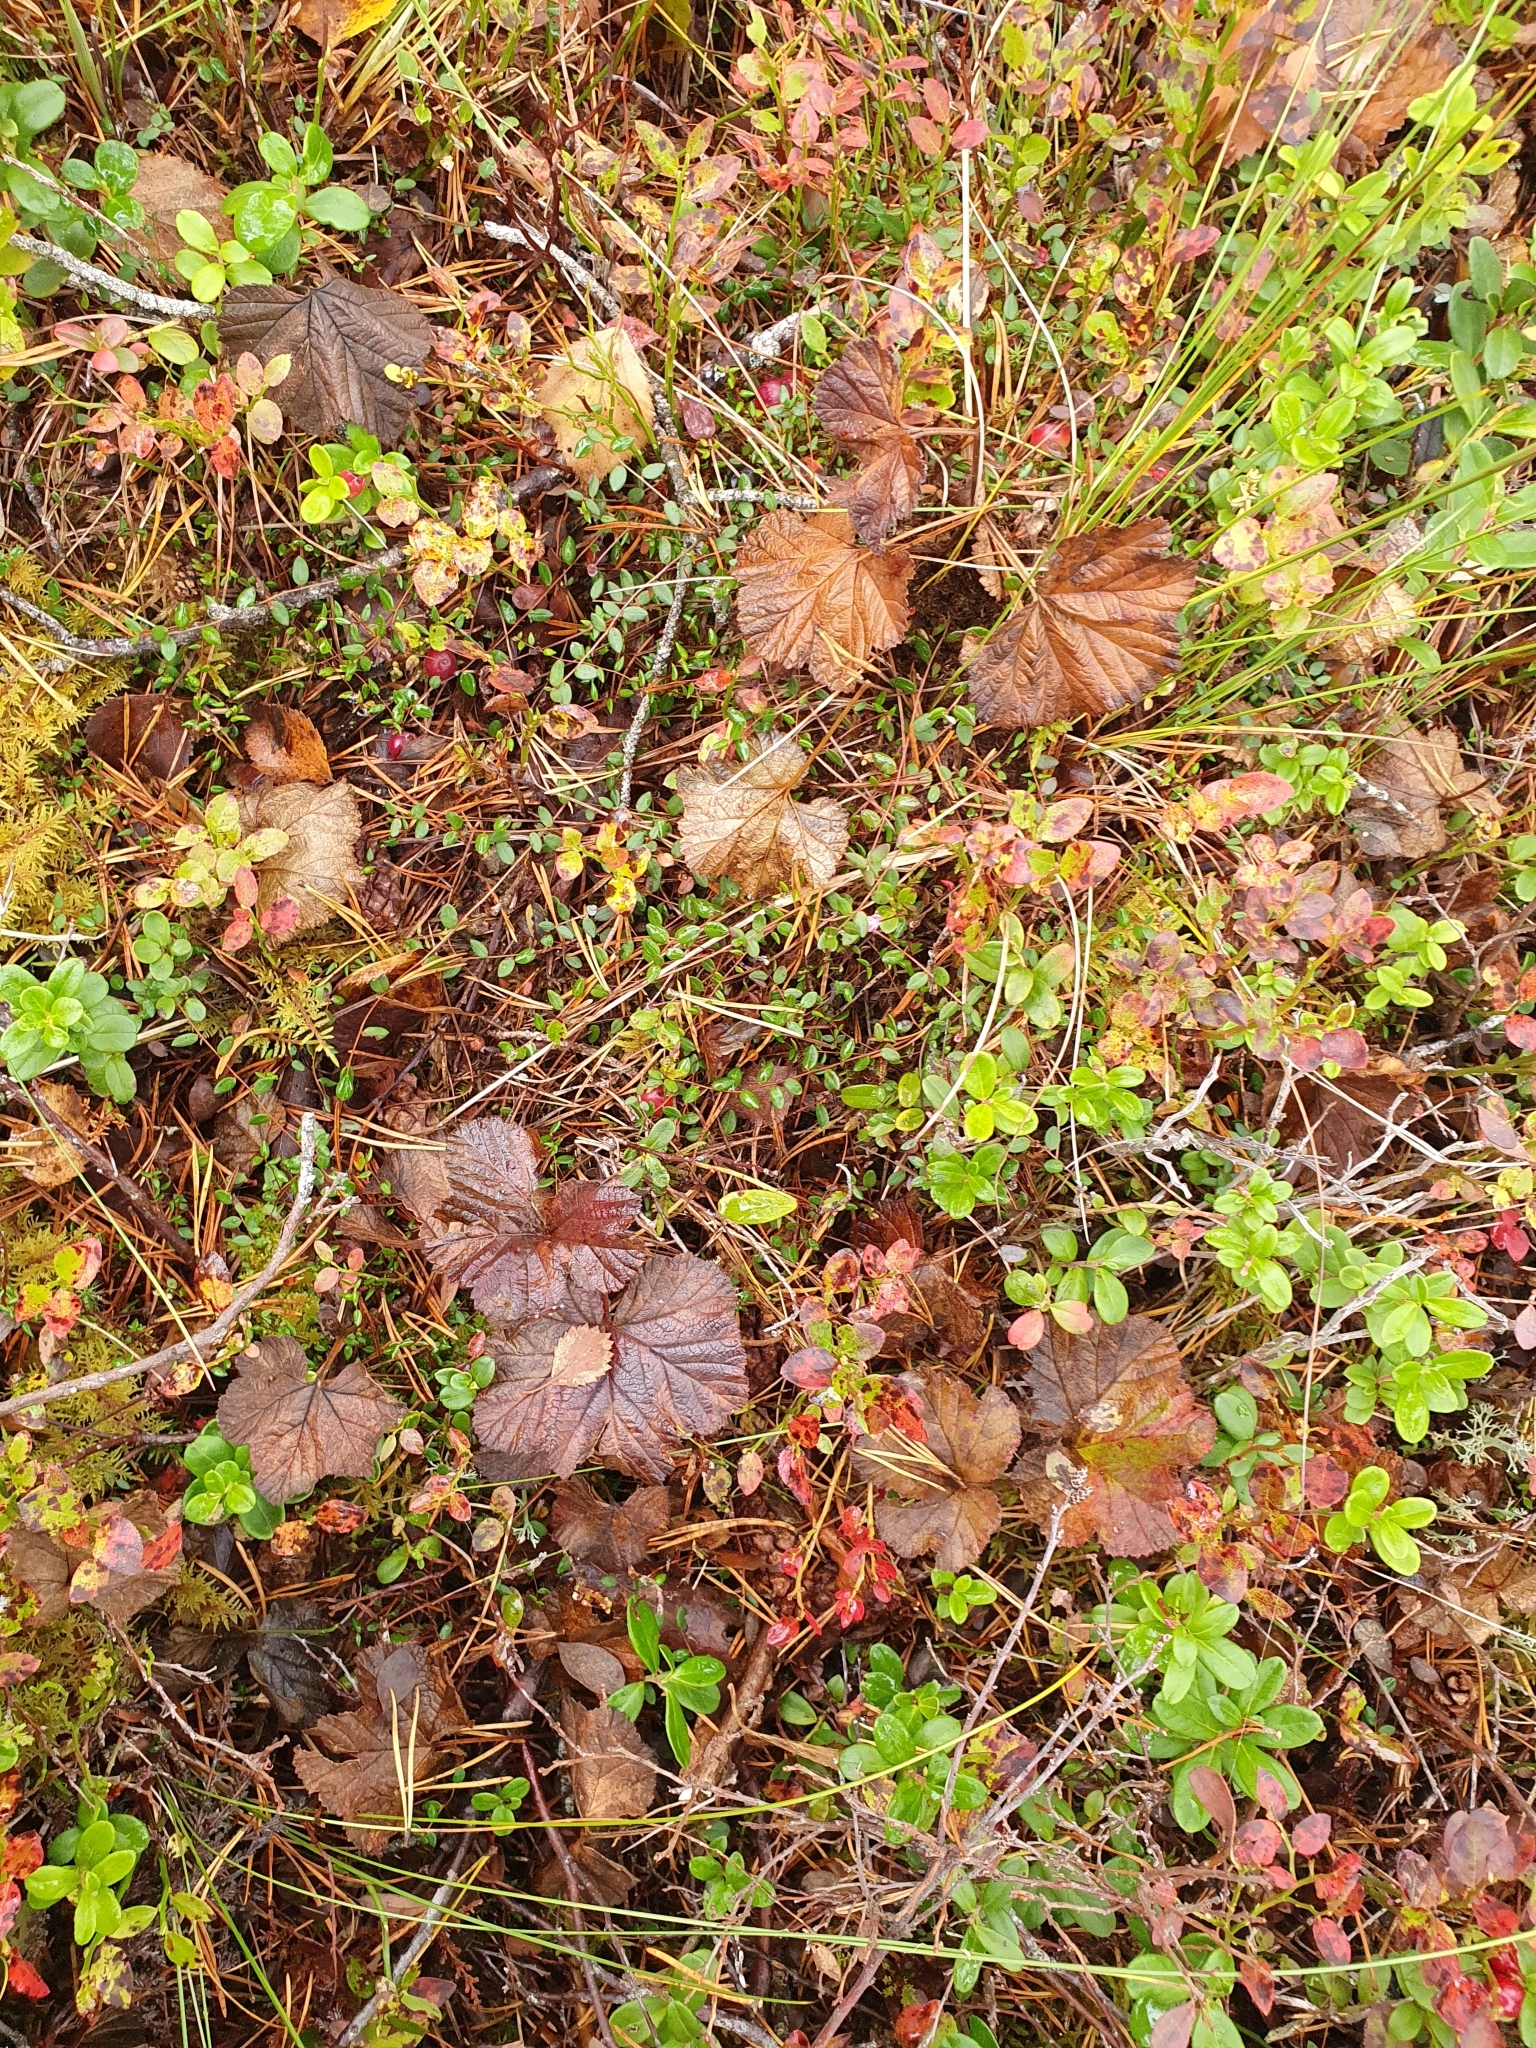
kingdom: Plantae
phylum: Tracheophyta
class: Magnoliopsida
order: Rosales
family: Rosaceae
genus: Rubus
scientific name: Rubus chamaemorus
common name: Cloudberry
